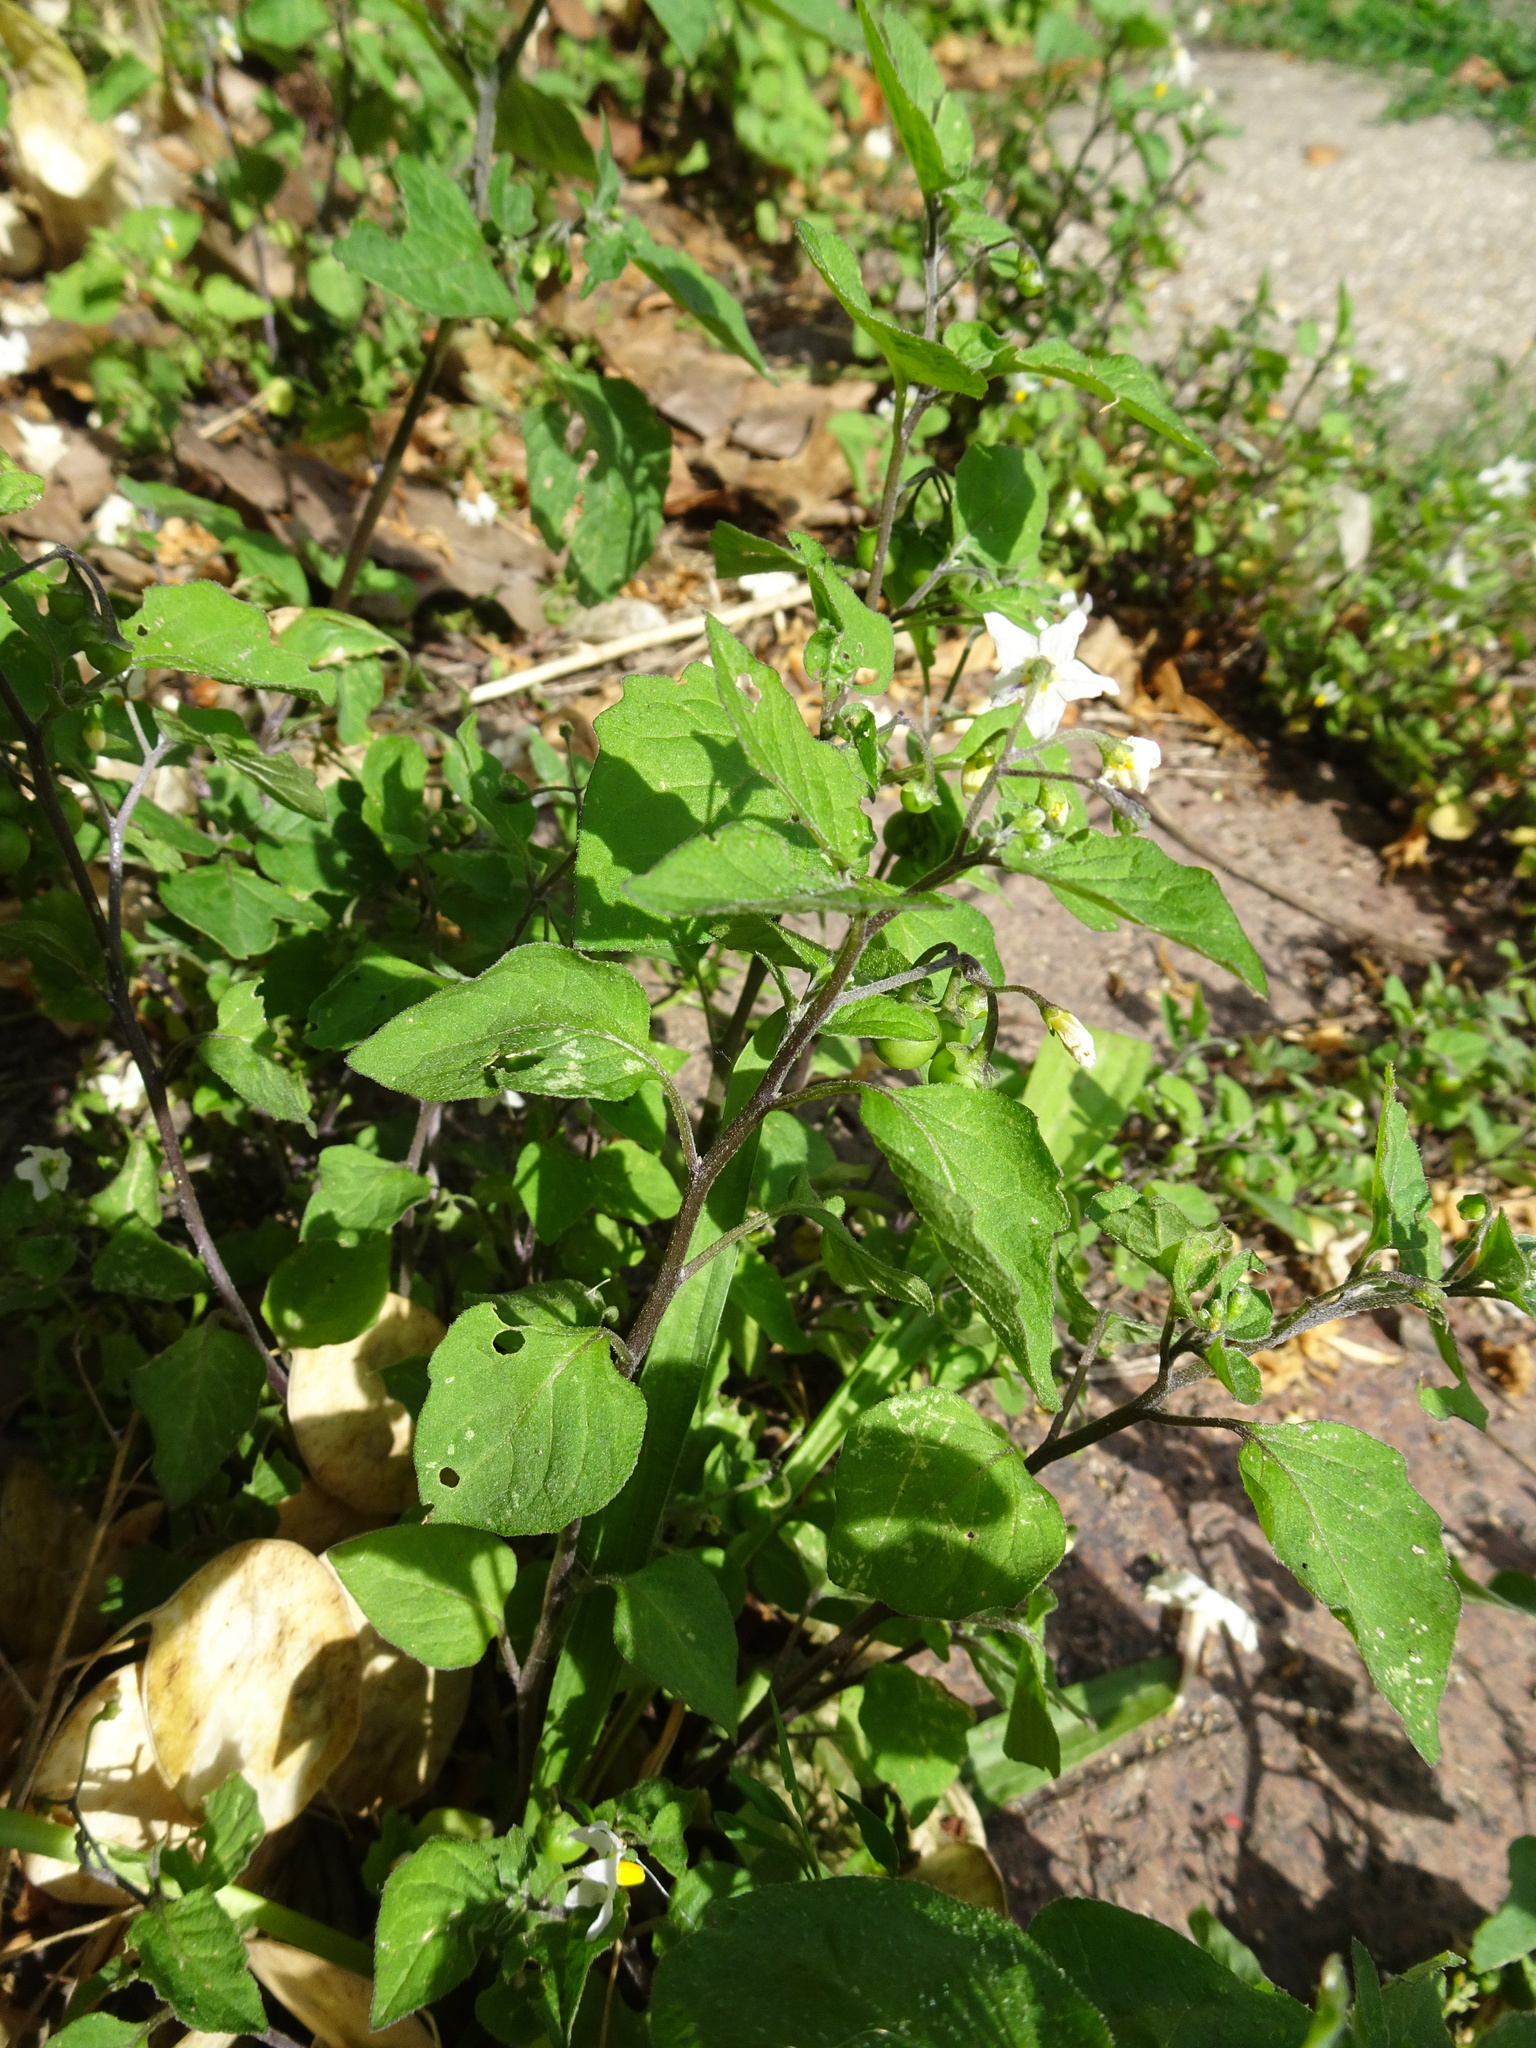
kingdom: Plantae
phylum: Tracheophyta
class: Magnoliopsida
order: Solanales
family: Solanaceae
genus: Solanum
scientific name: Solanum nigrum
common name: Black nightshade
